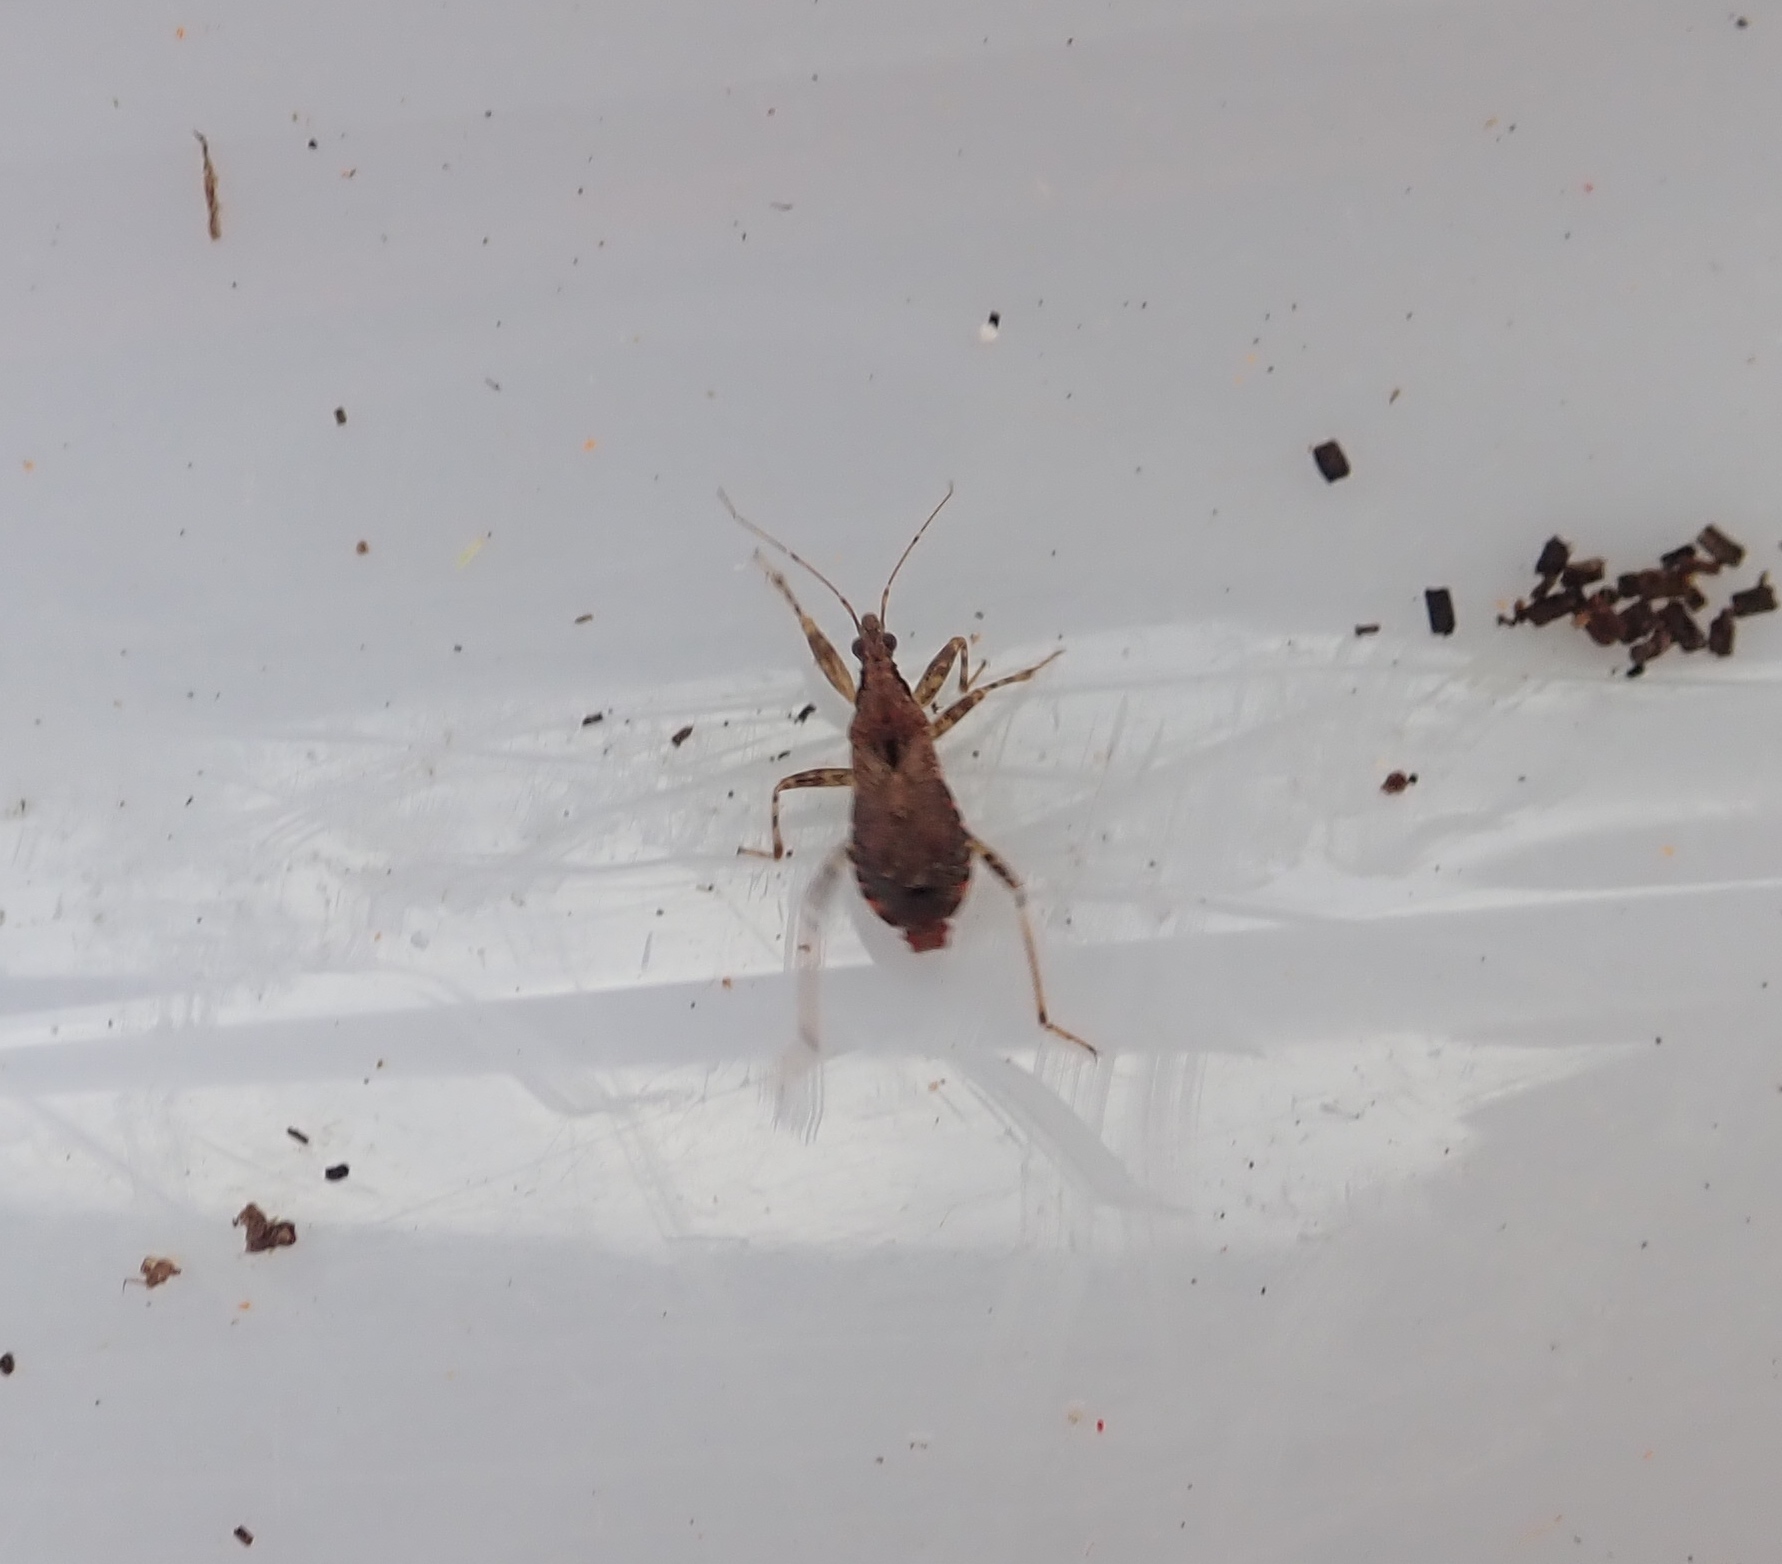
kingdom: Animalia
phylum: Arthropoda
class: Insecta
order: Hemiptera
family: Nabidae
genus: Himacerus
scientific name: Himacerus mirmicoides
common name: Ant damsel bug
